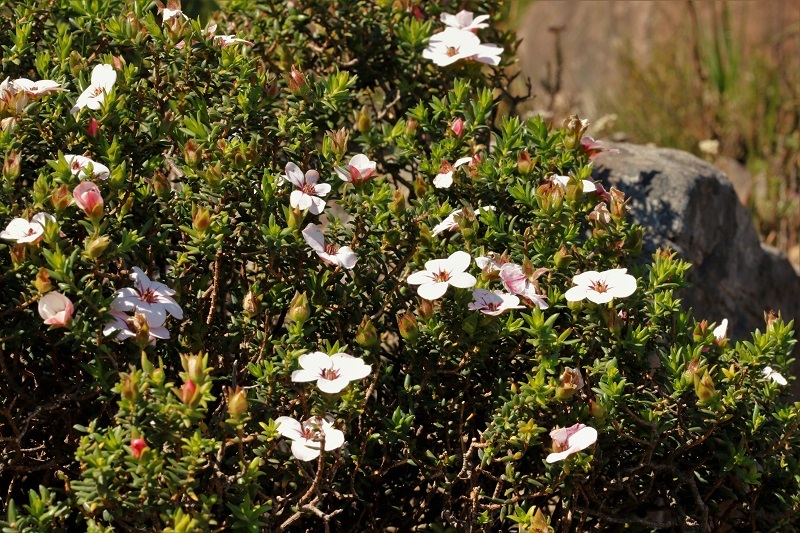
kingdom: Plantae
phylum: Tracheophyta
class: Magnoliopsida
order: Sapindales
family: Rutaceae
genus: Adenandra
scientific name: Adenandra villosa
